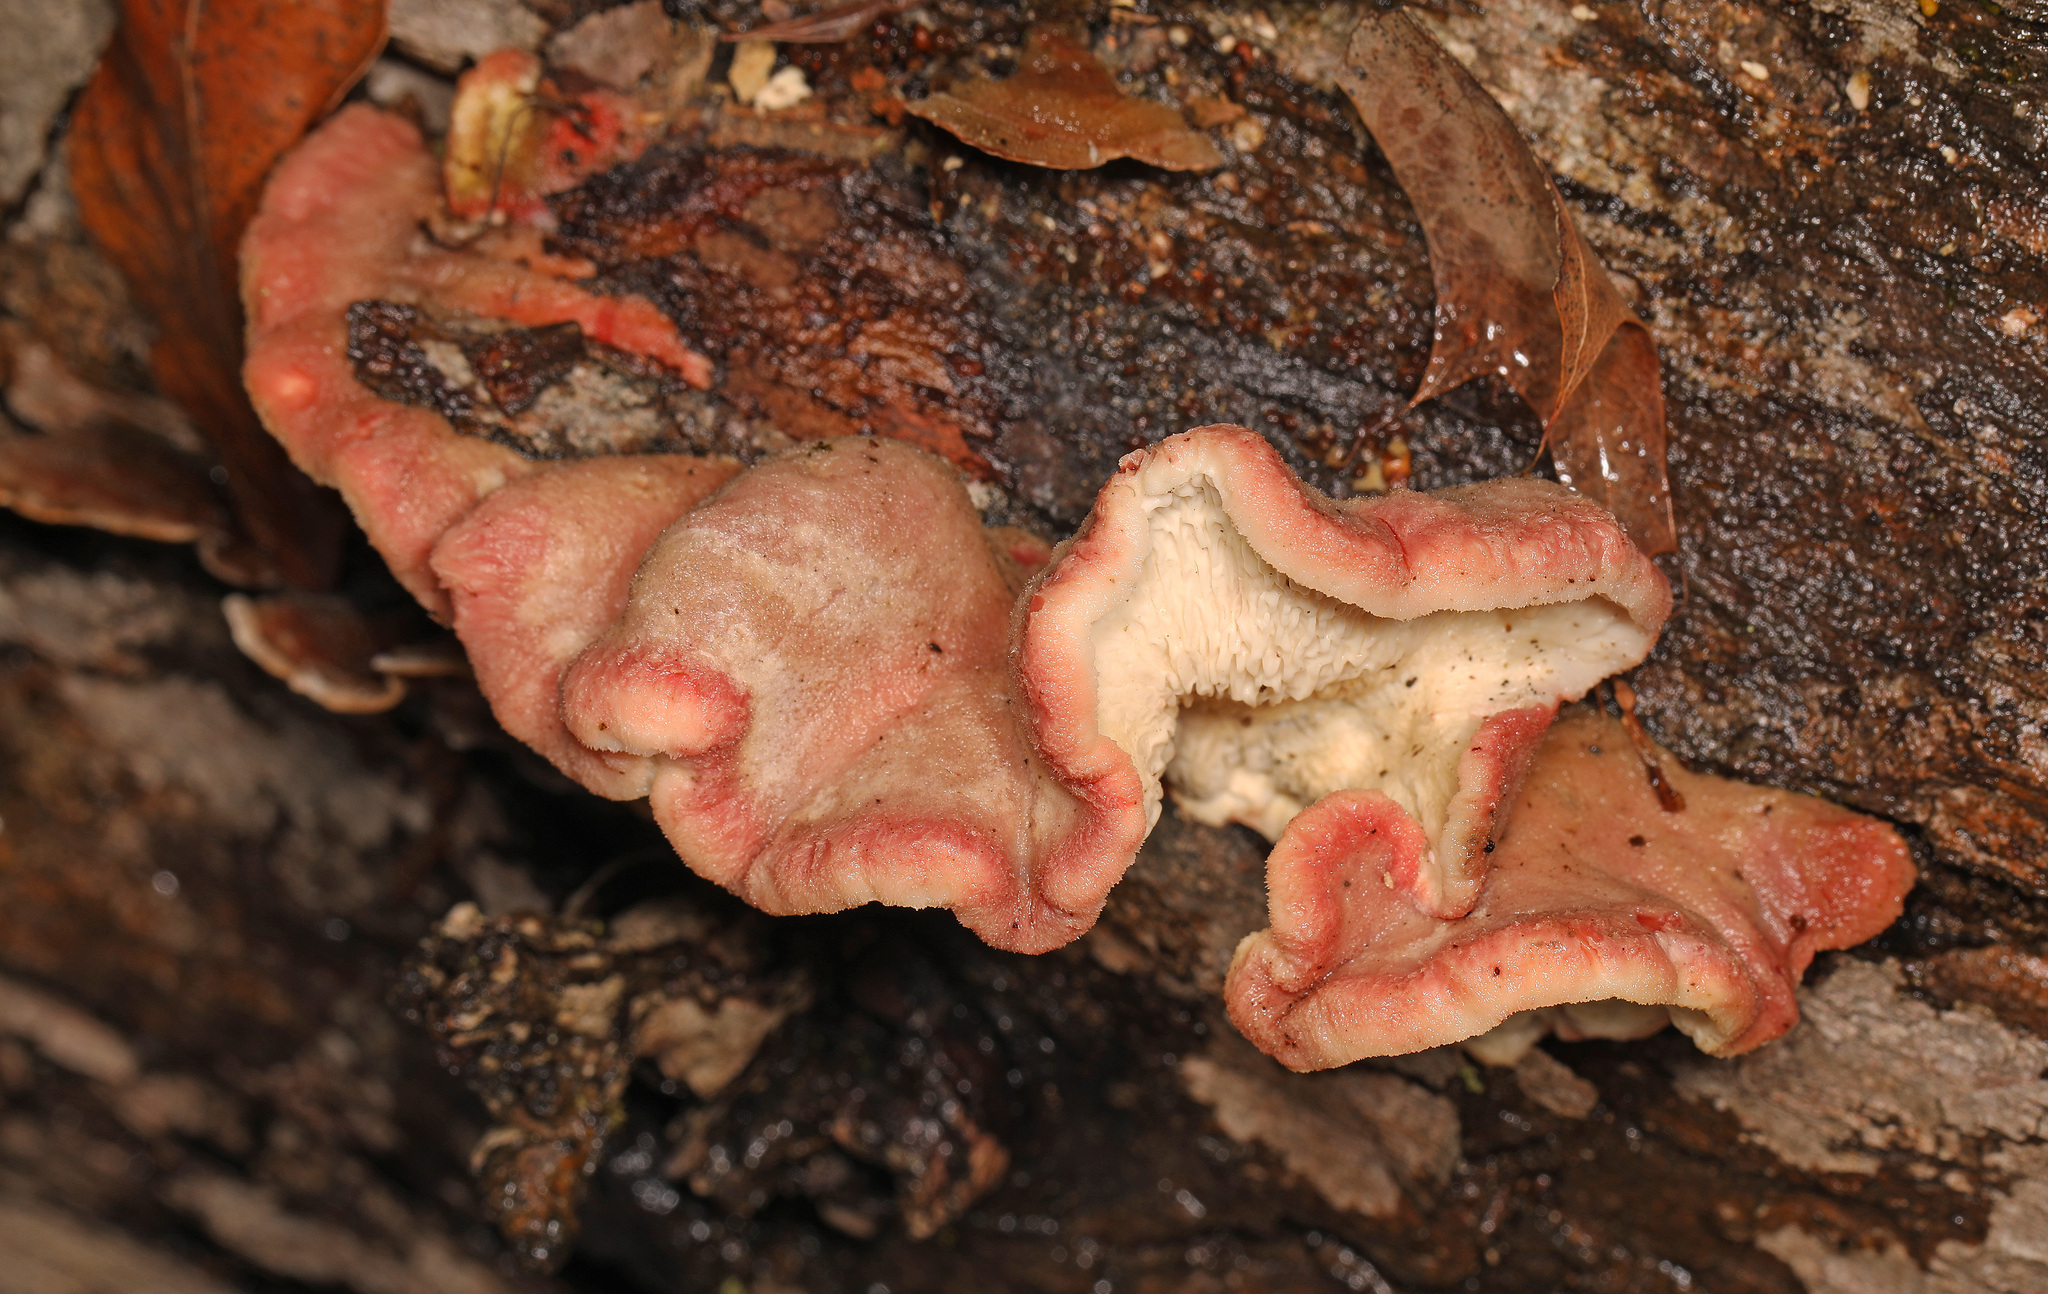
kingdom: Fungi
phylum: Basidiomycota
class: Agaricomycetes
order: Polyporales
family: Irpicaceae
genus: Byssomerulius
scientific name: Byssomerulius incarnatus
